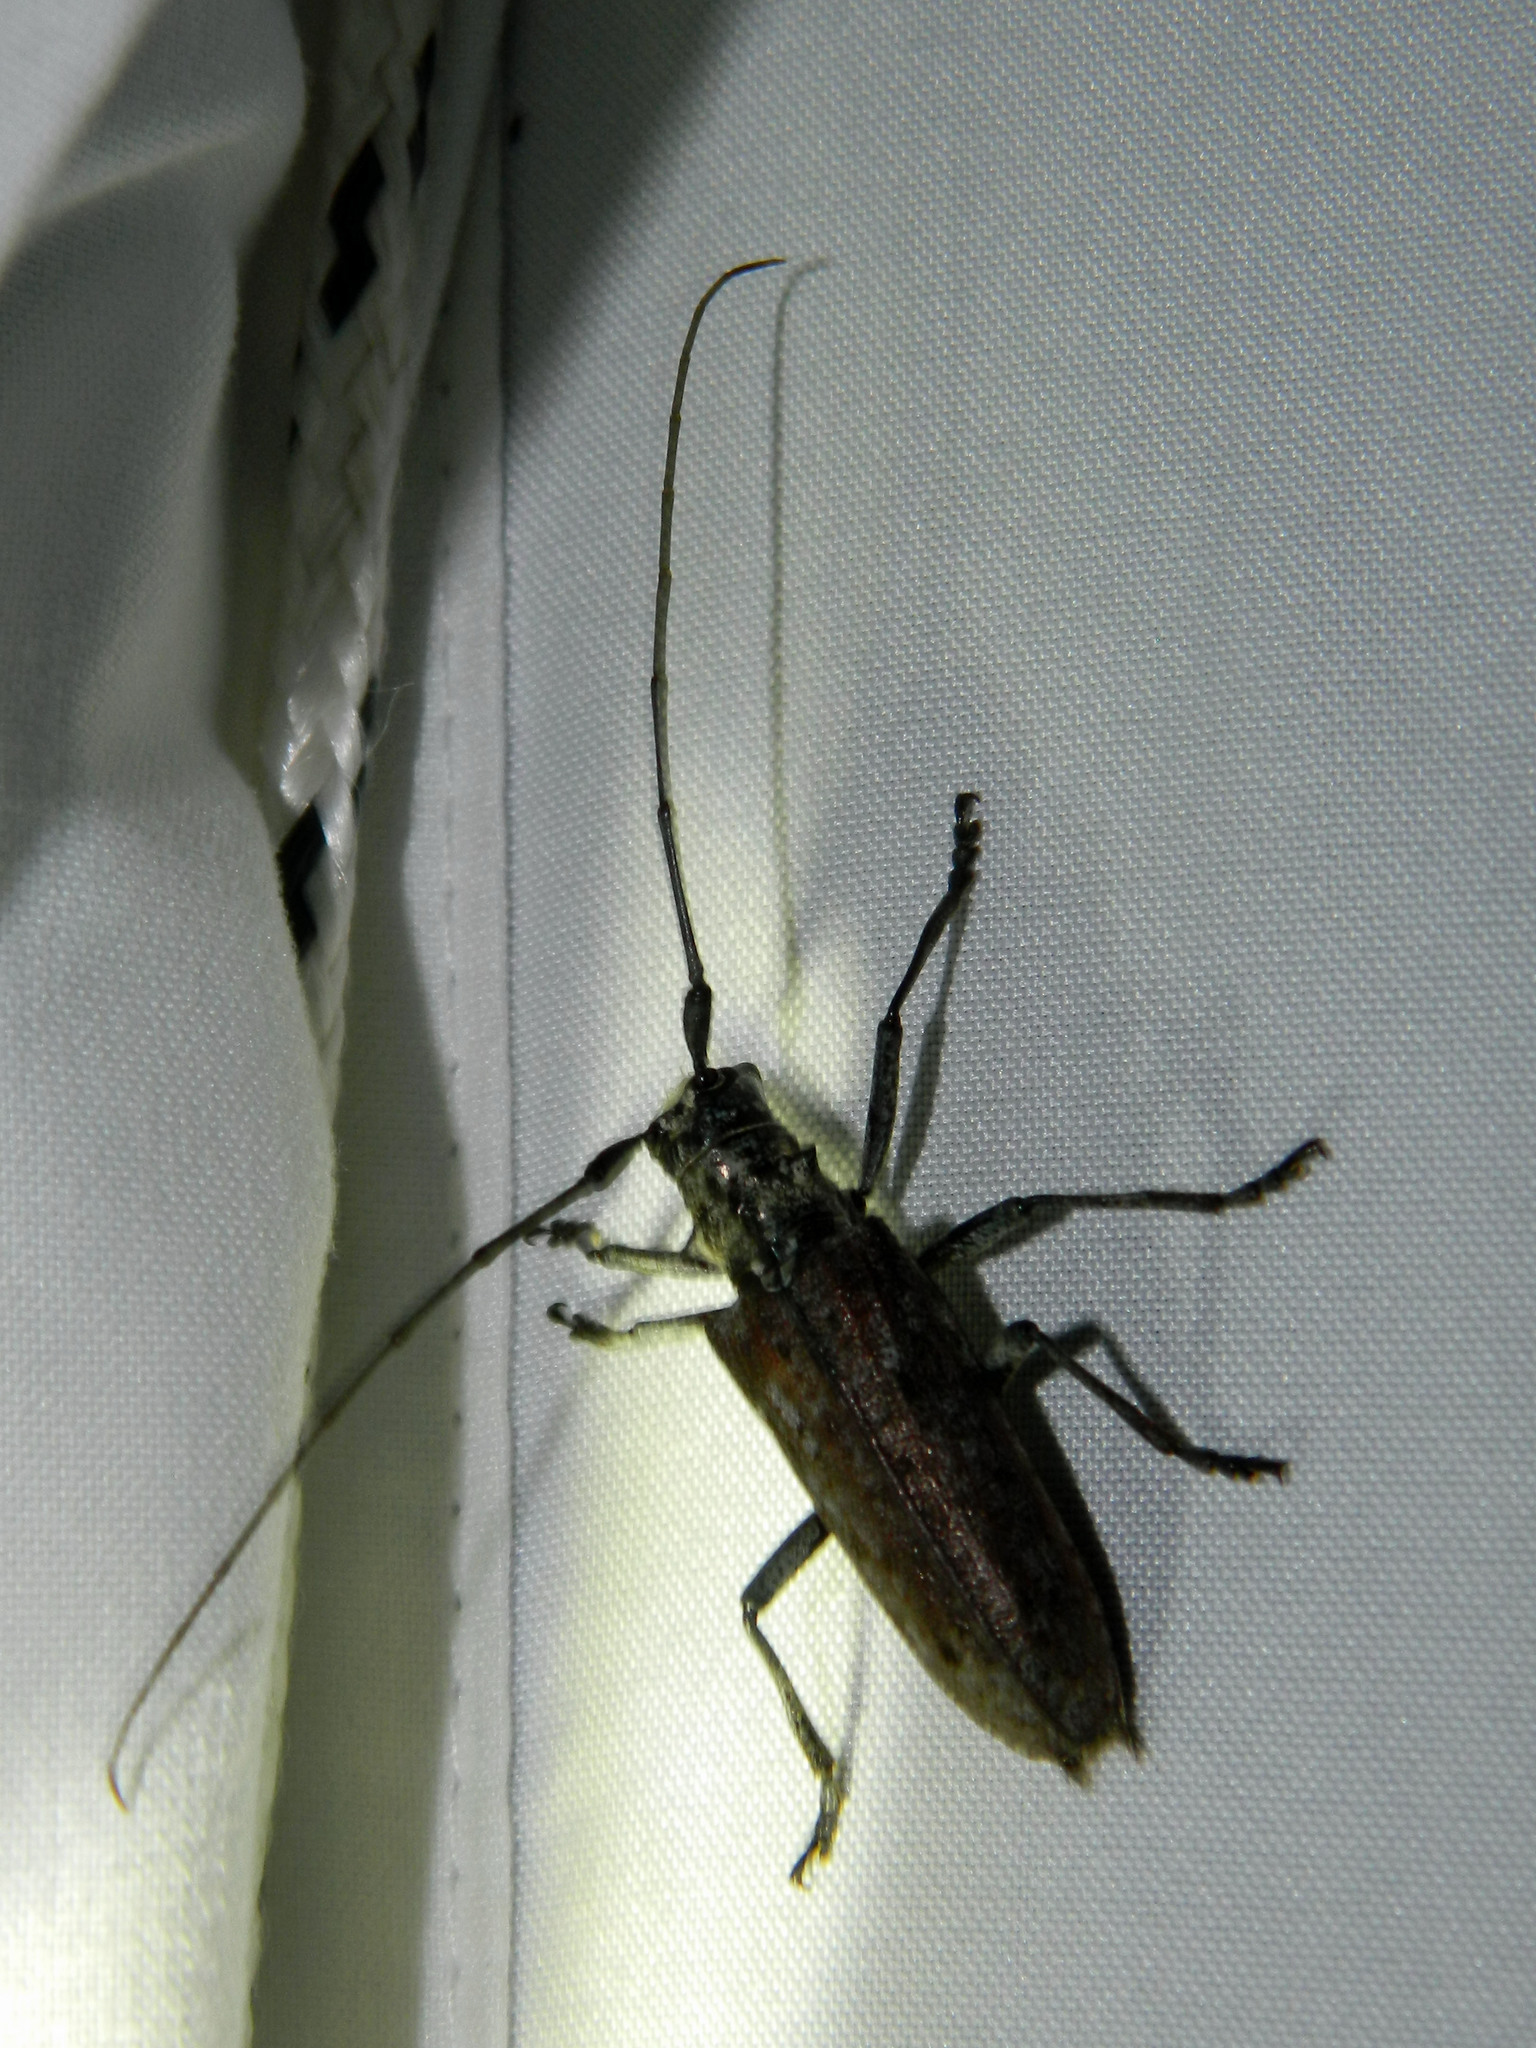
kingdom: Animalia
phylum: Arthropoda
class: Insecta
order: Coleoptera
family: Cerambycidae
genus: Monochamus
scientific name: Monochamus notatus
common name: Northeastern pine sawyer beetle
